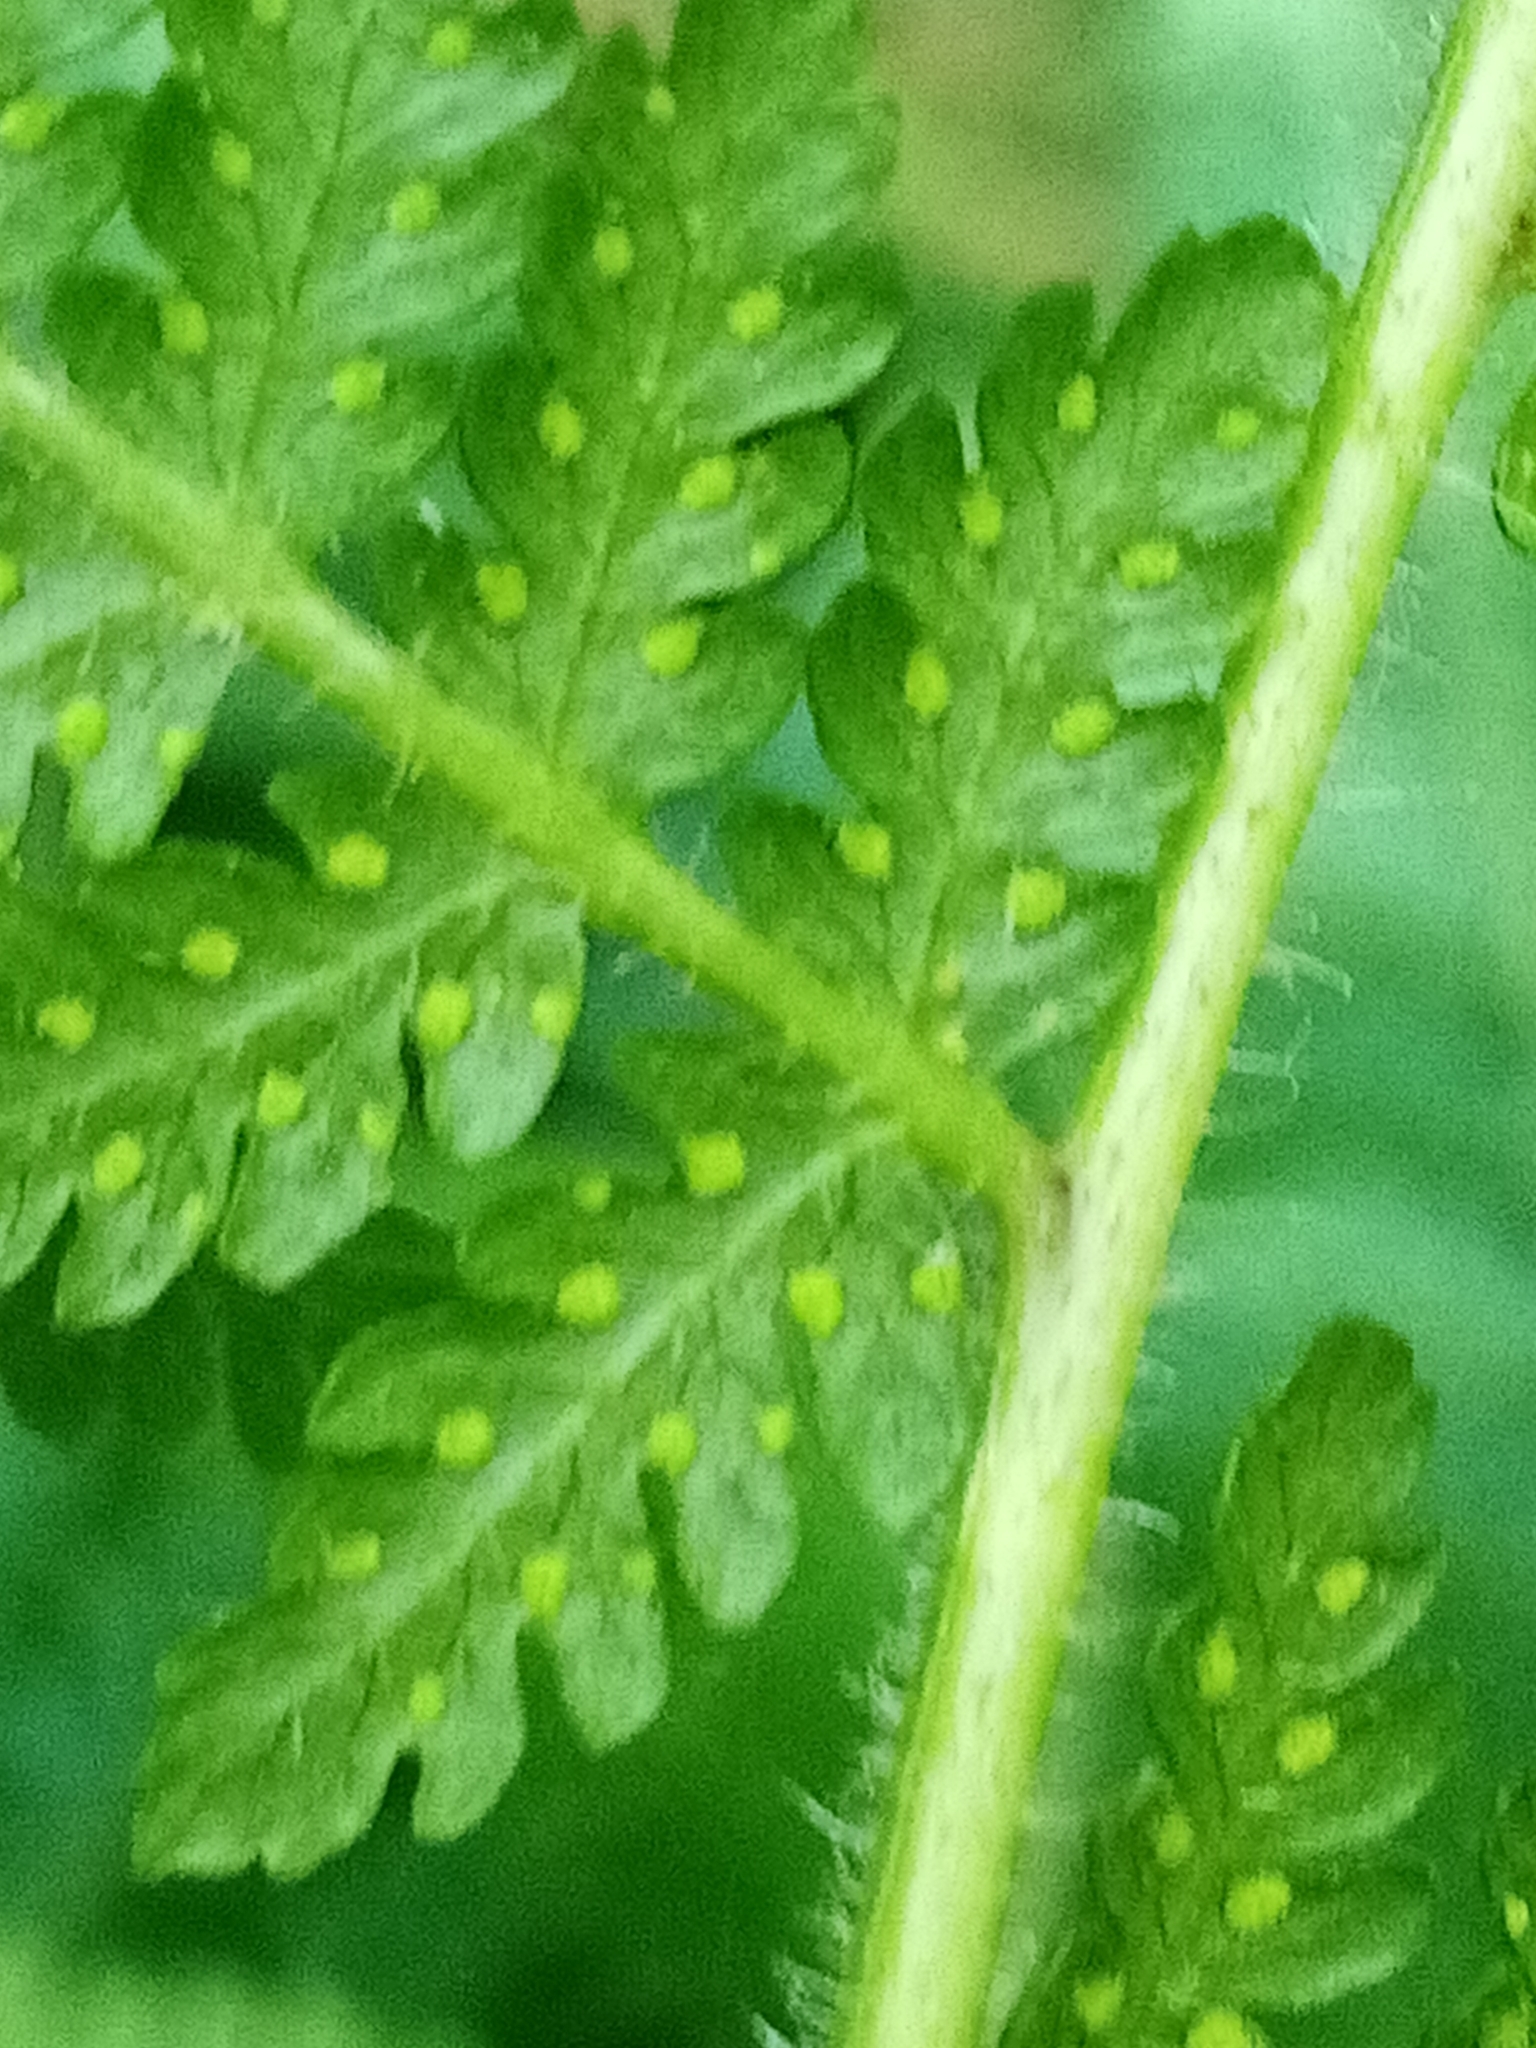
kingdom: Plantae
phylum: Tracheophyta
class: Polypodiopsida
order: Polypodiales
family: Dennstaedtiaceae
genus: Hypolepis
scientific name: Hypolepis ambigua
